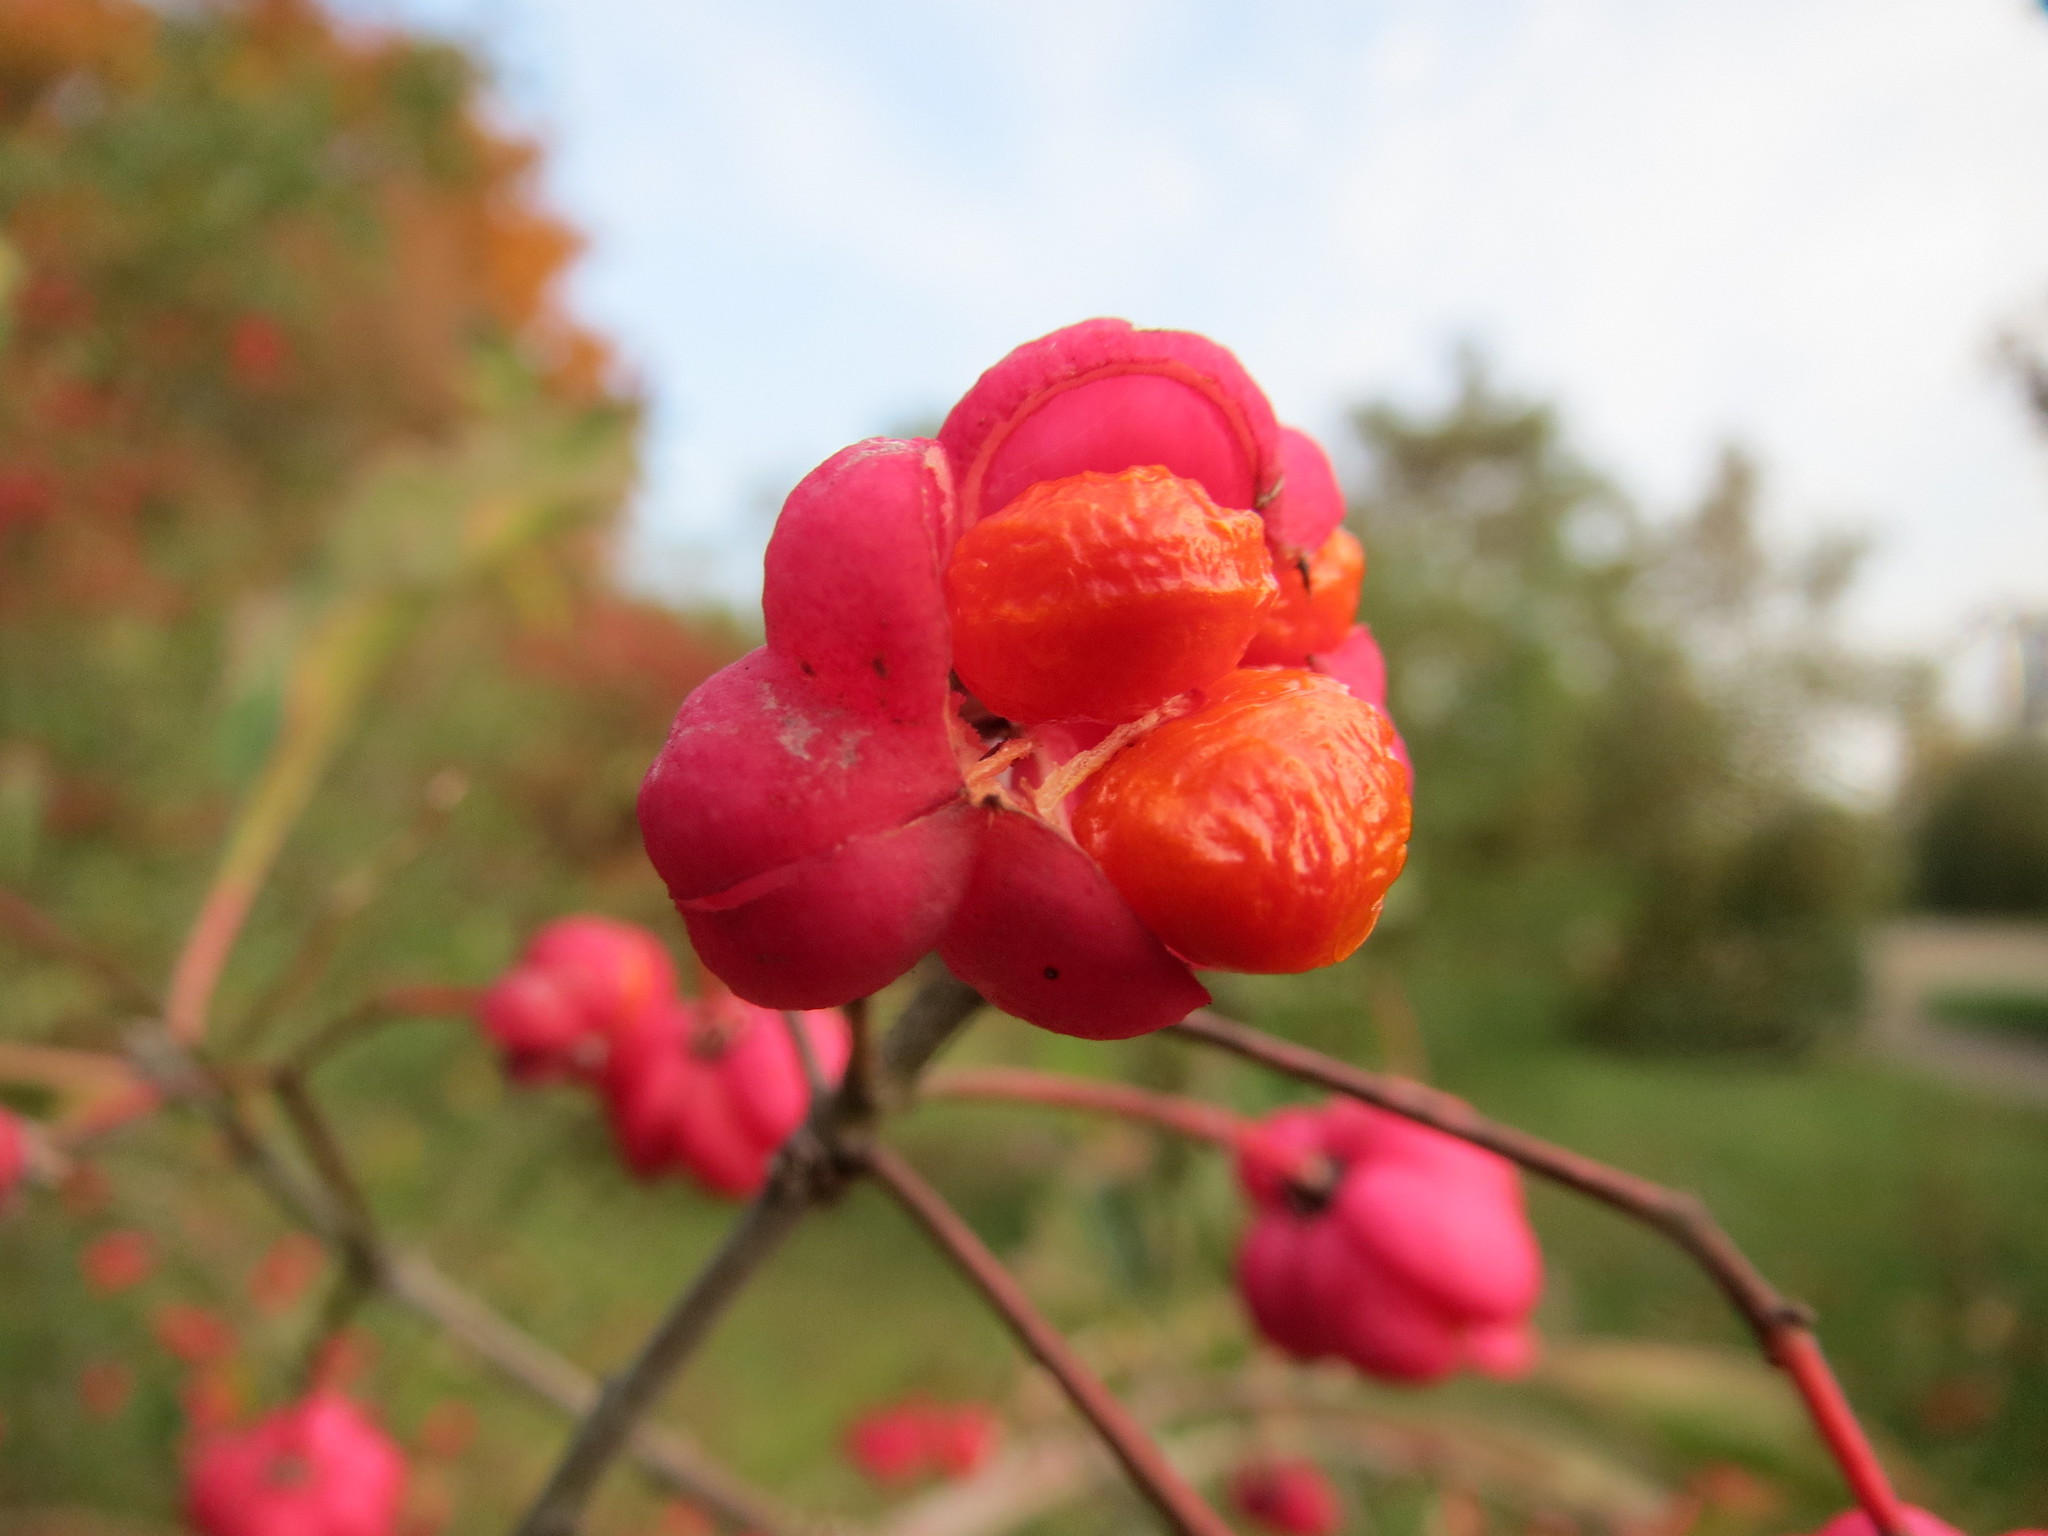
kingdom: Plantae
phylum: Tracheophyta
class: Magnoliopsida
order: Celastrales
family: Celastraceae
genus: Euonymus
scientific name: Euonymus europaeus
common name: Spindle
